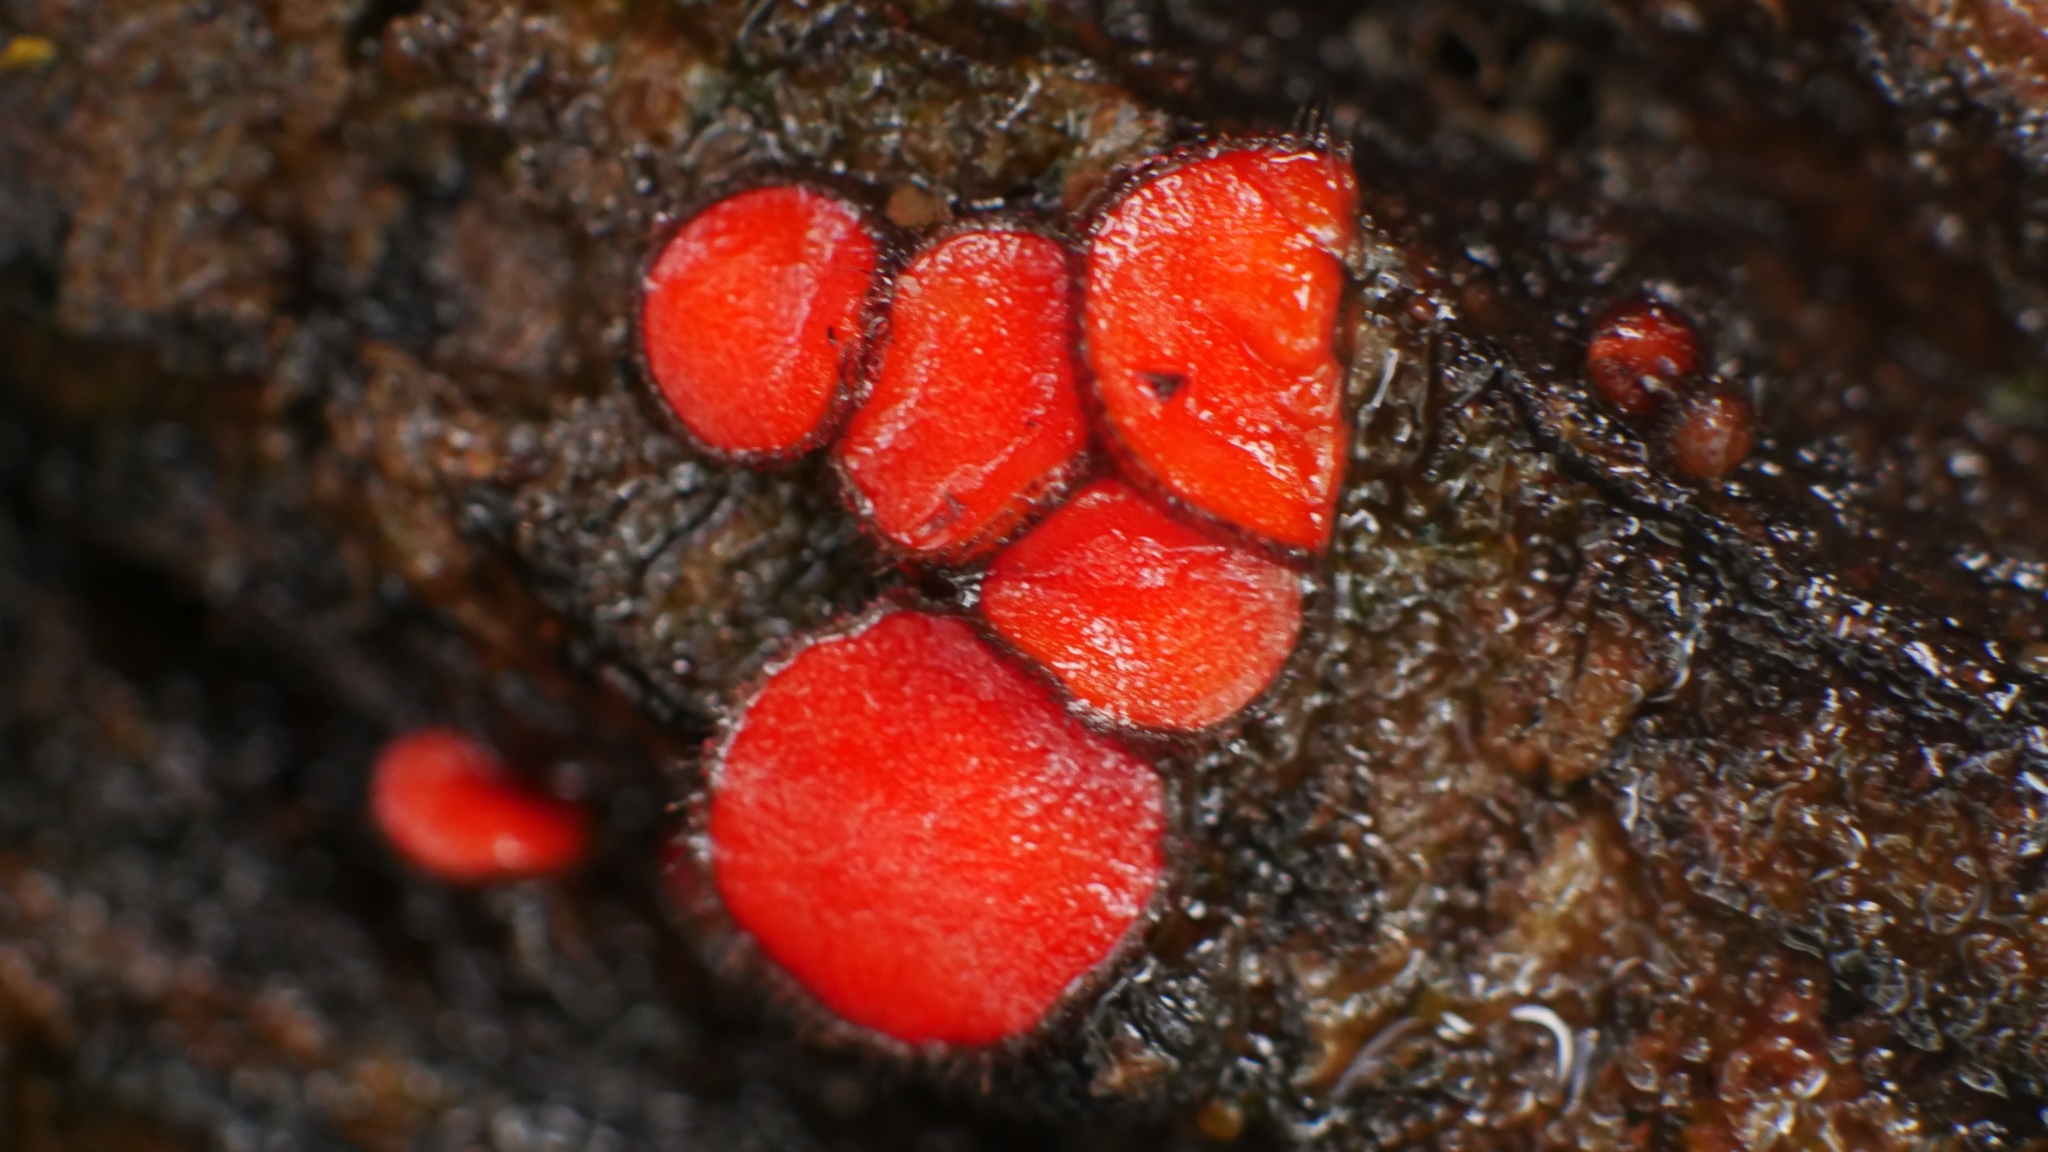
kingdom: Fungi
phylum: Ascomycota
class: Pezizomycetes
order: Pezizales
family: Pyronemataceae
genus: Scutellinia
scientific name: Scutellinia
